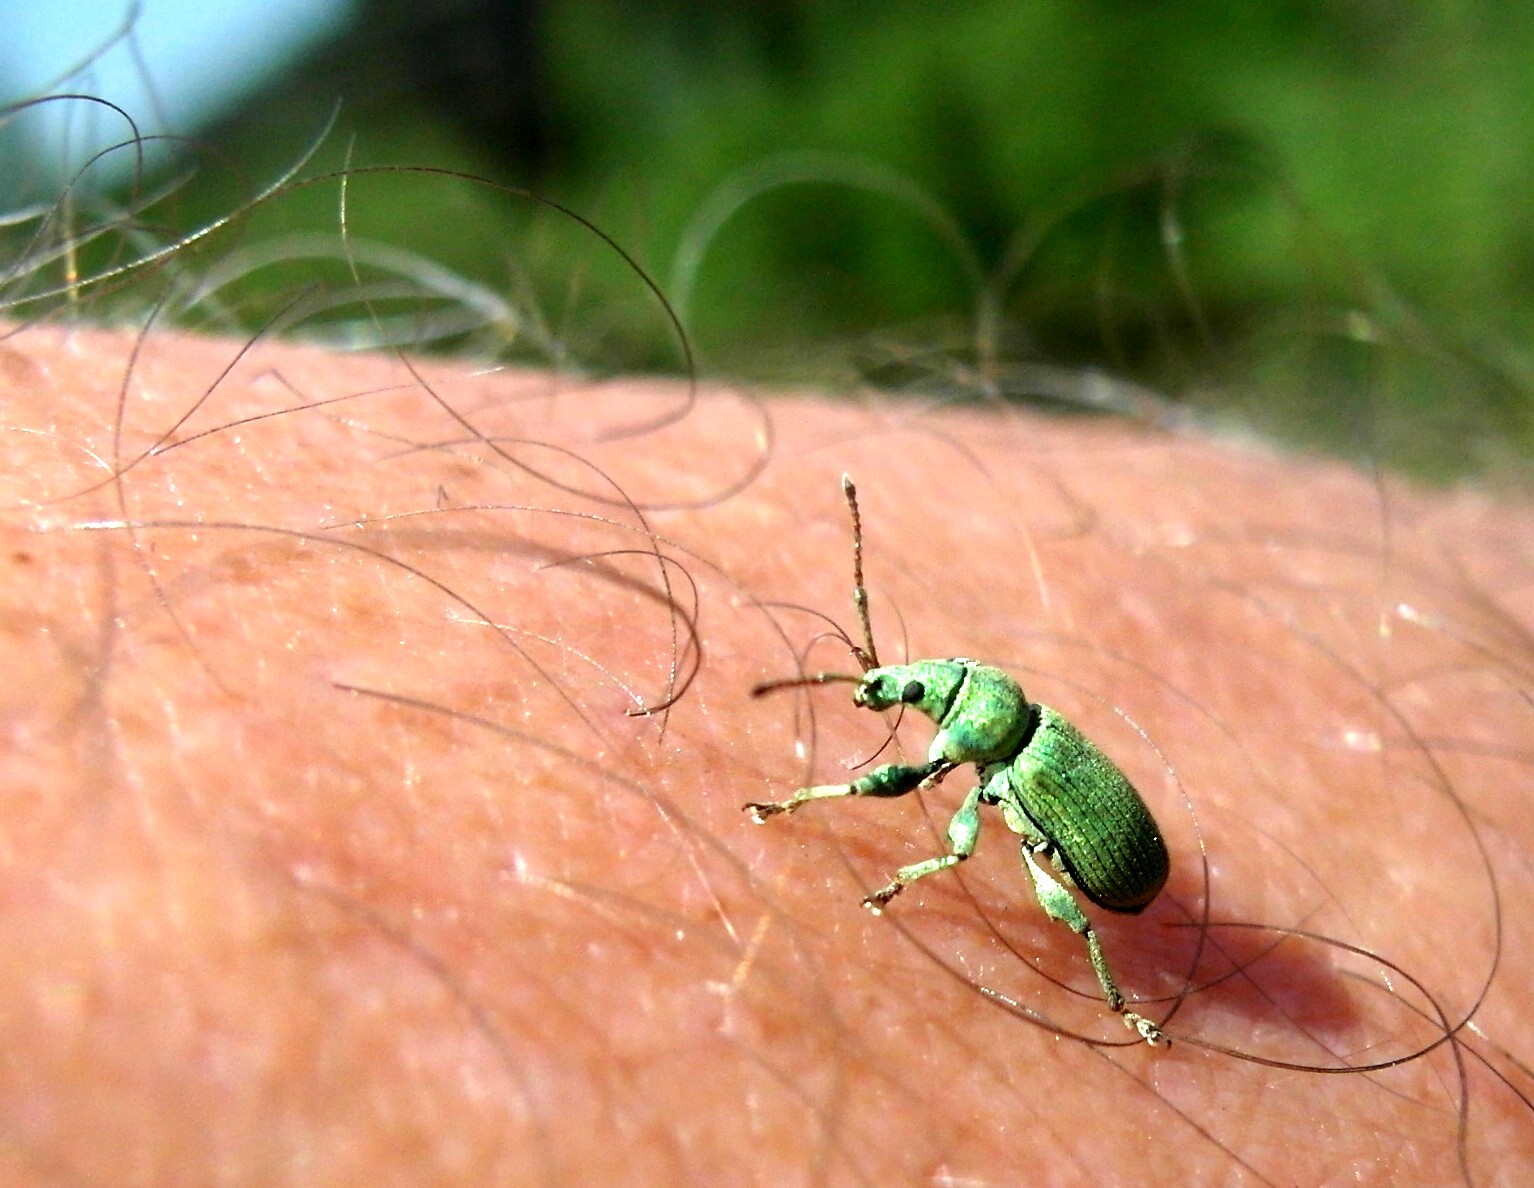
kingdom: Animalia
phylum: Arthropoda
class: Insecta
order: Coleoptera
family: Curculionidae
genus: Phyllobius
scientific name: Phyllobius maculicornis
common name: Green leaf weevil
